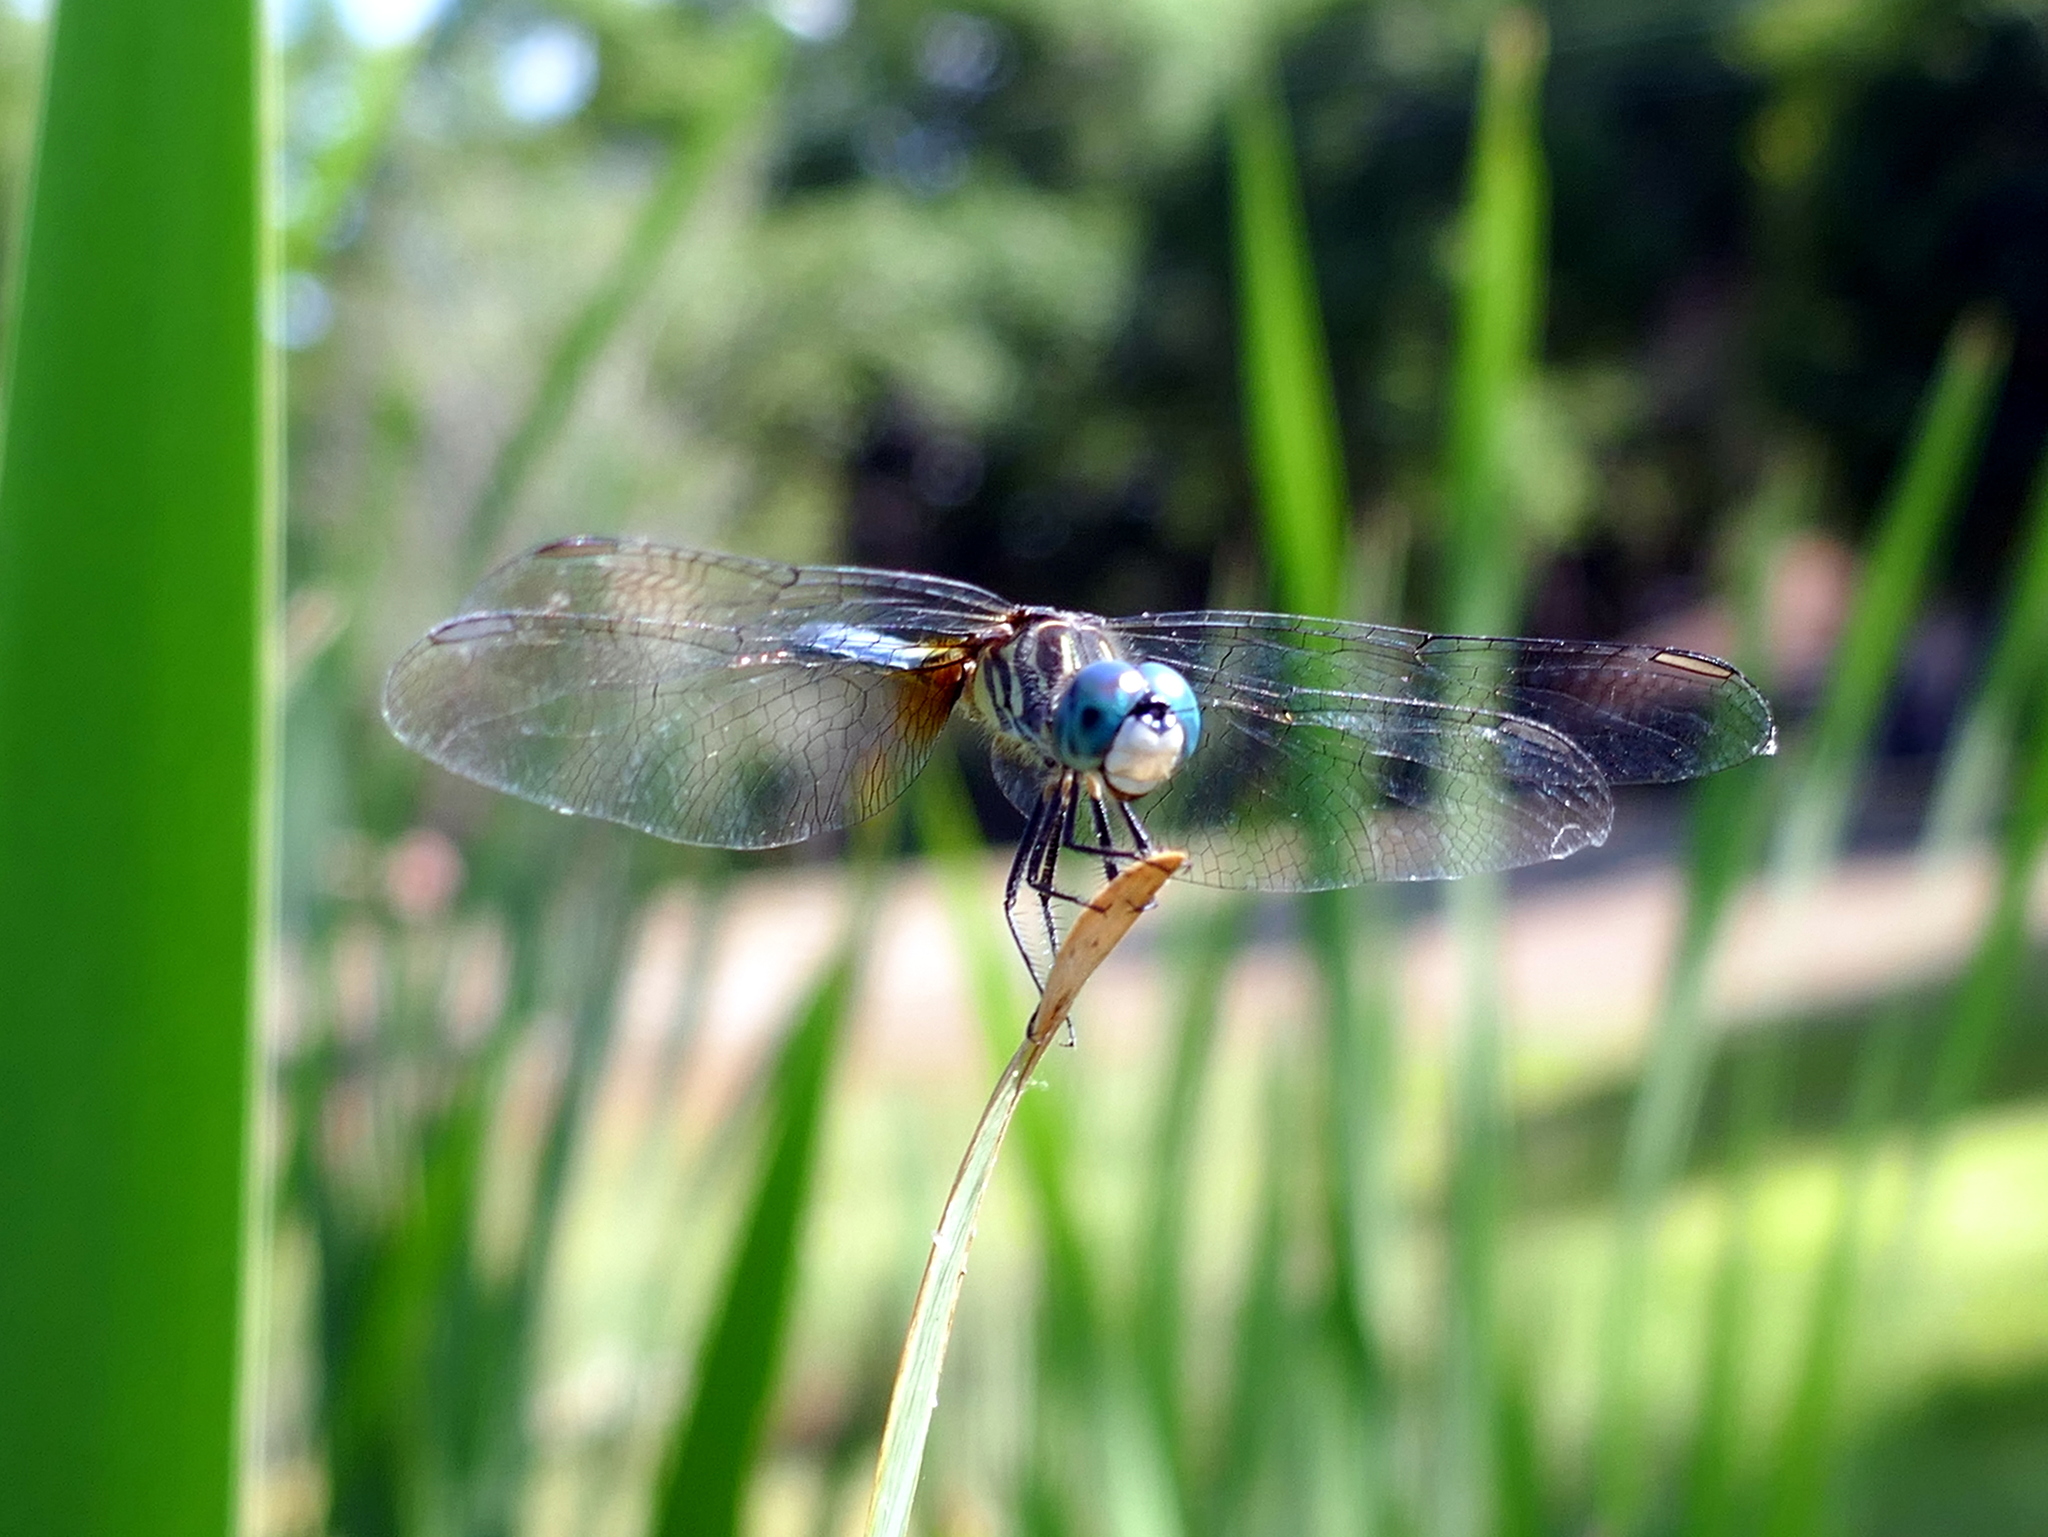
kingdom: Animalia
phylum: Arthropoda
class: Insecta
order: Odonata
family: Libellulidae
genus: Pachydiplax
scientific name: Pachydiplax longipennis
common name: Blue dasher
